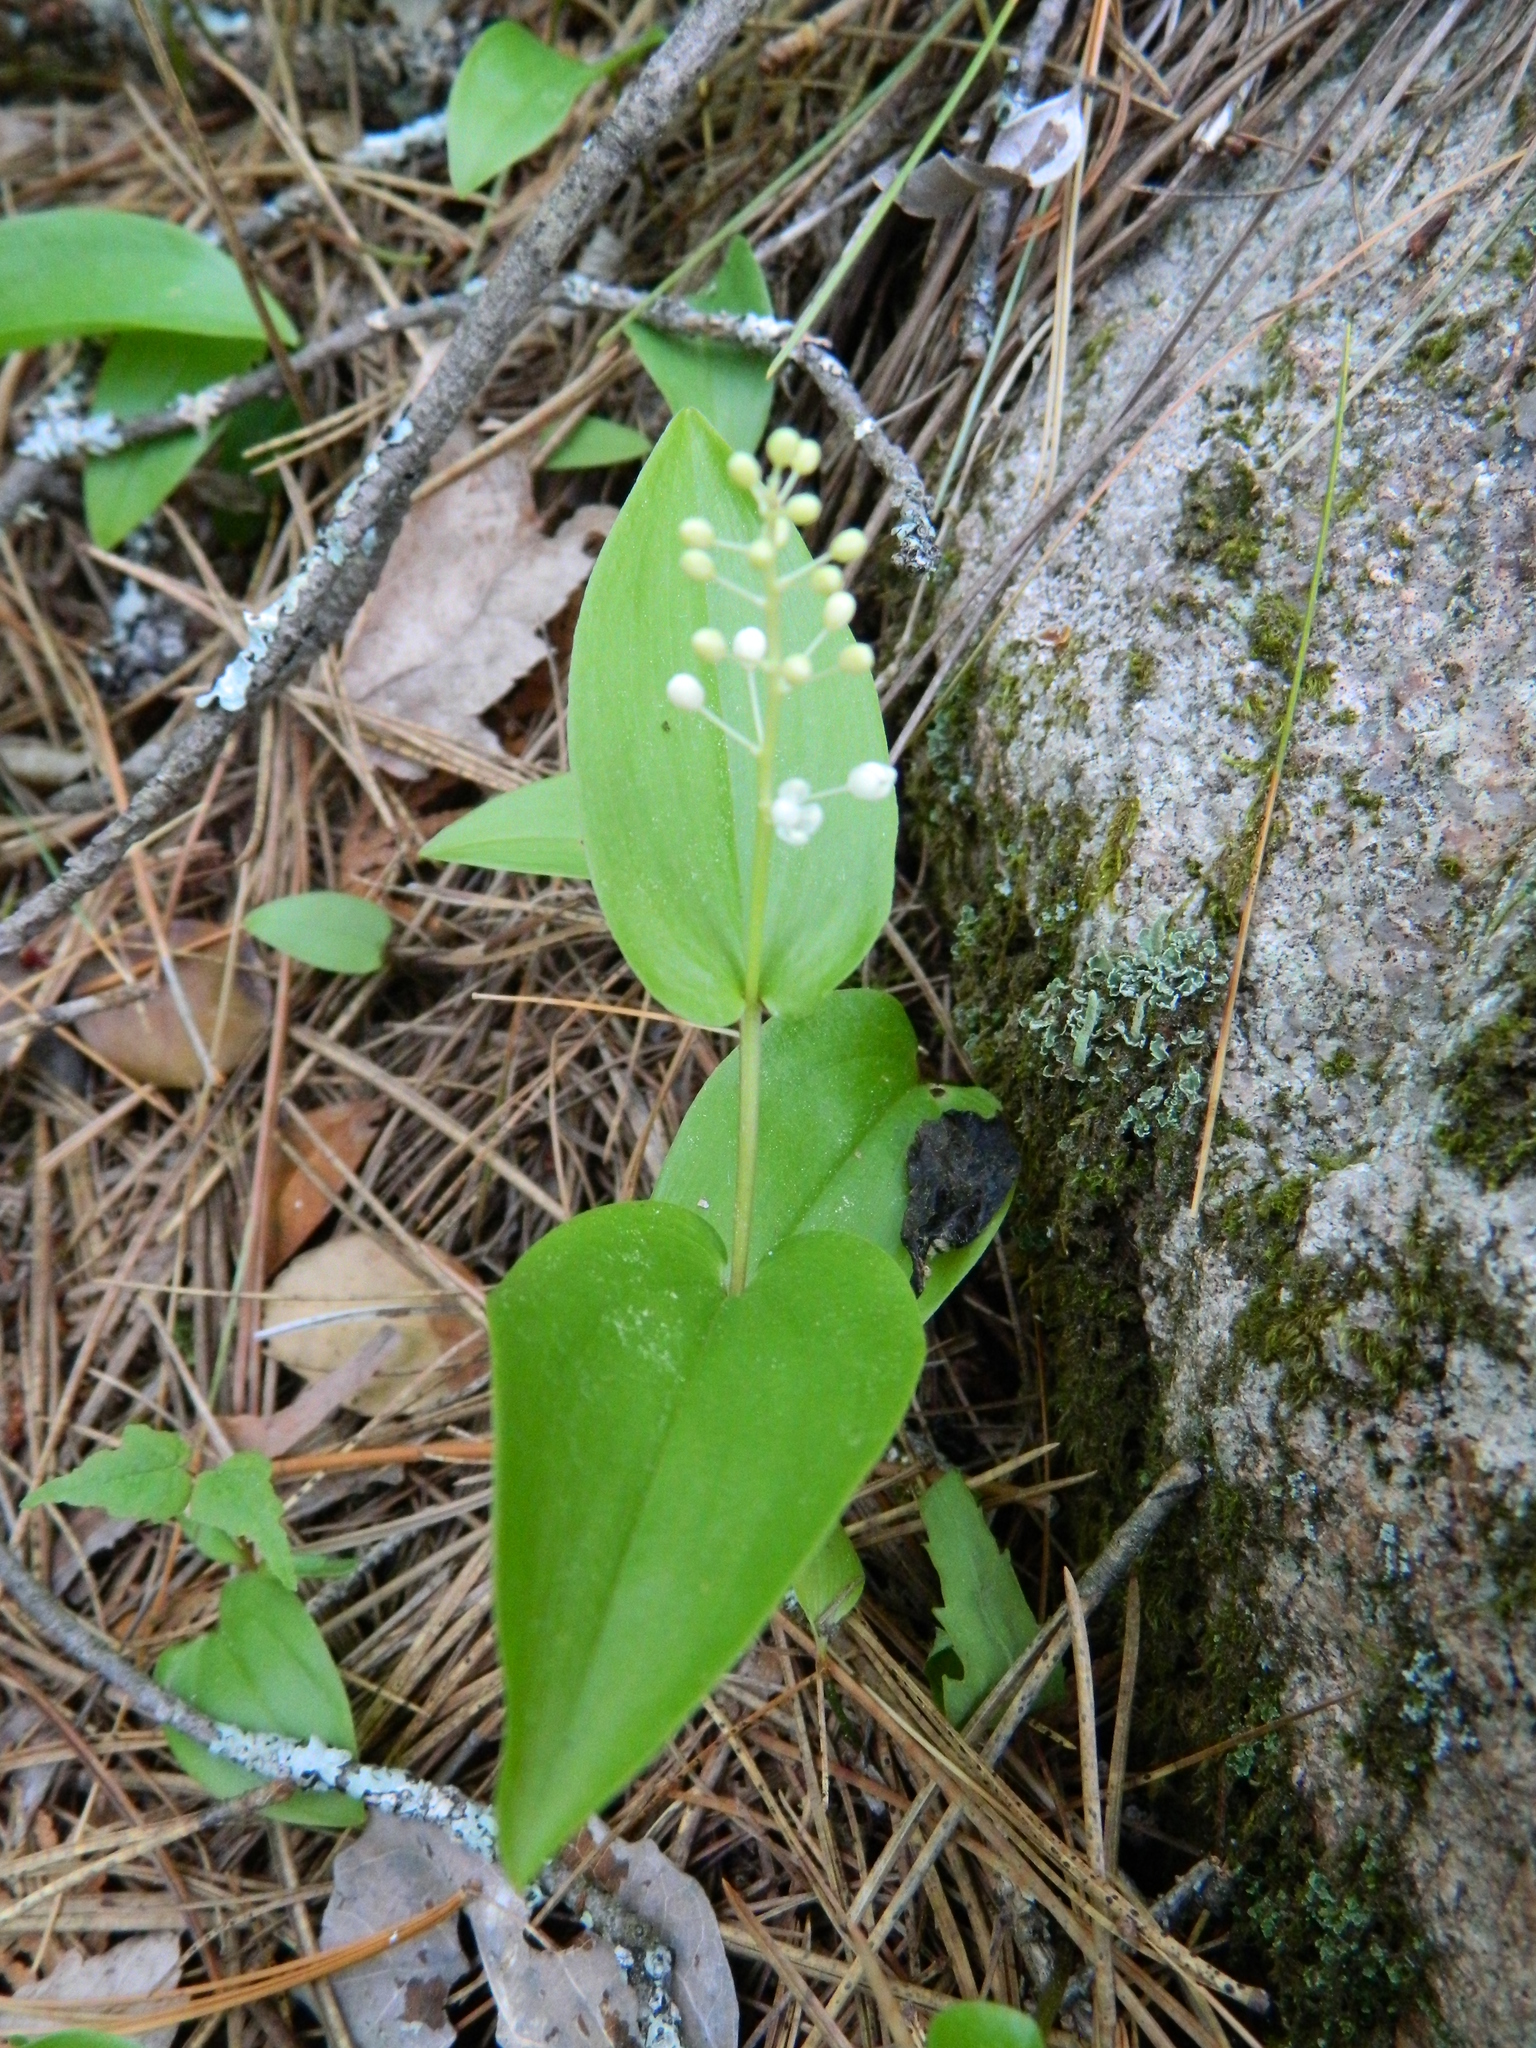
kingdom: Plantae
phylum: Tracheophyta
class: Liliopsida
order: Asparagales
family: Asparagaceae
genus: Maianthemum
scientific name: Maianthemum canadense
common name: False lily-of-the-valley
